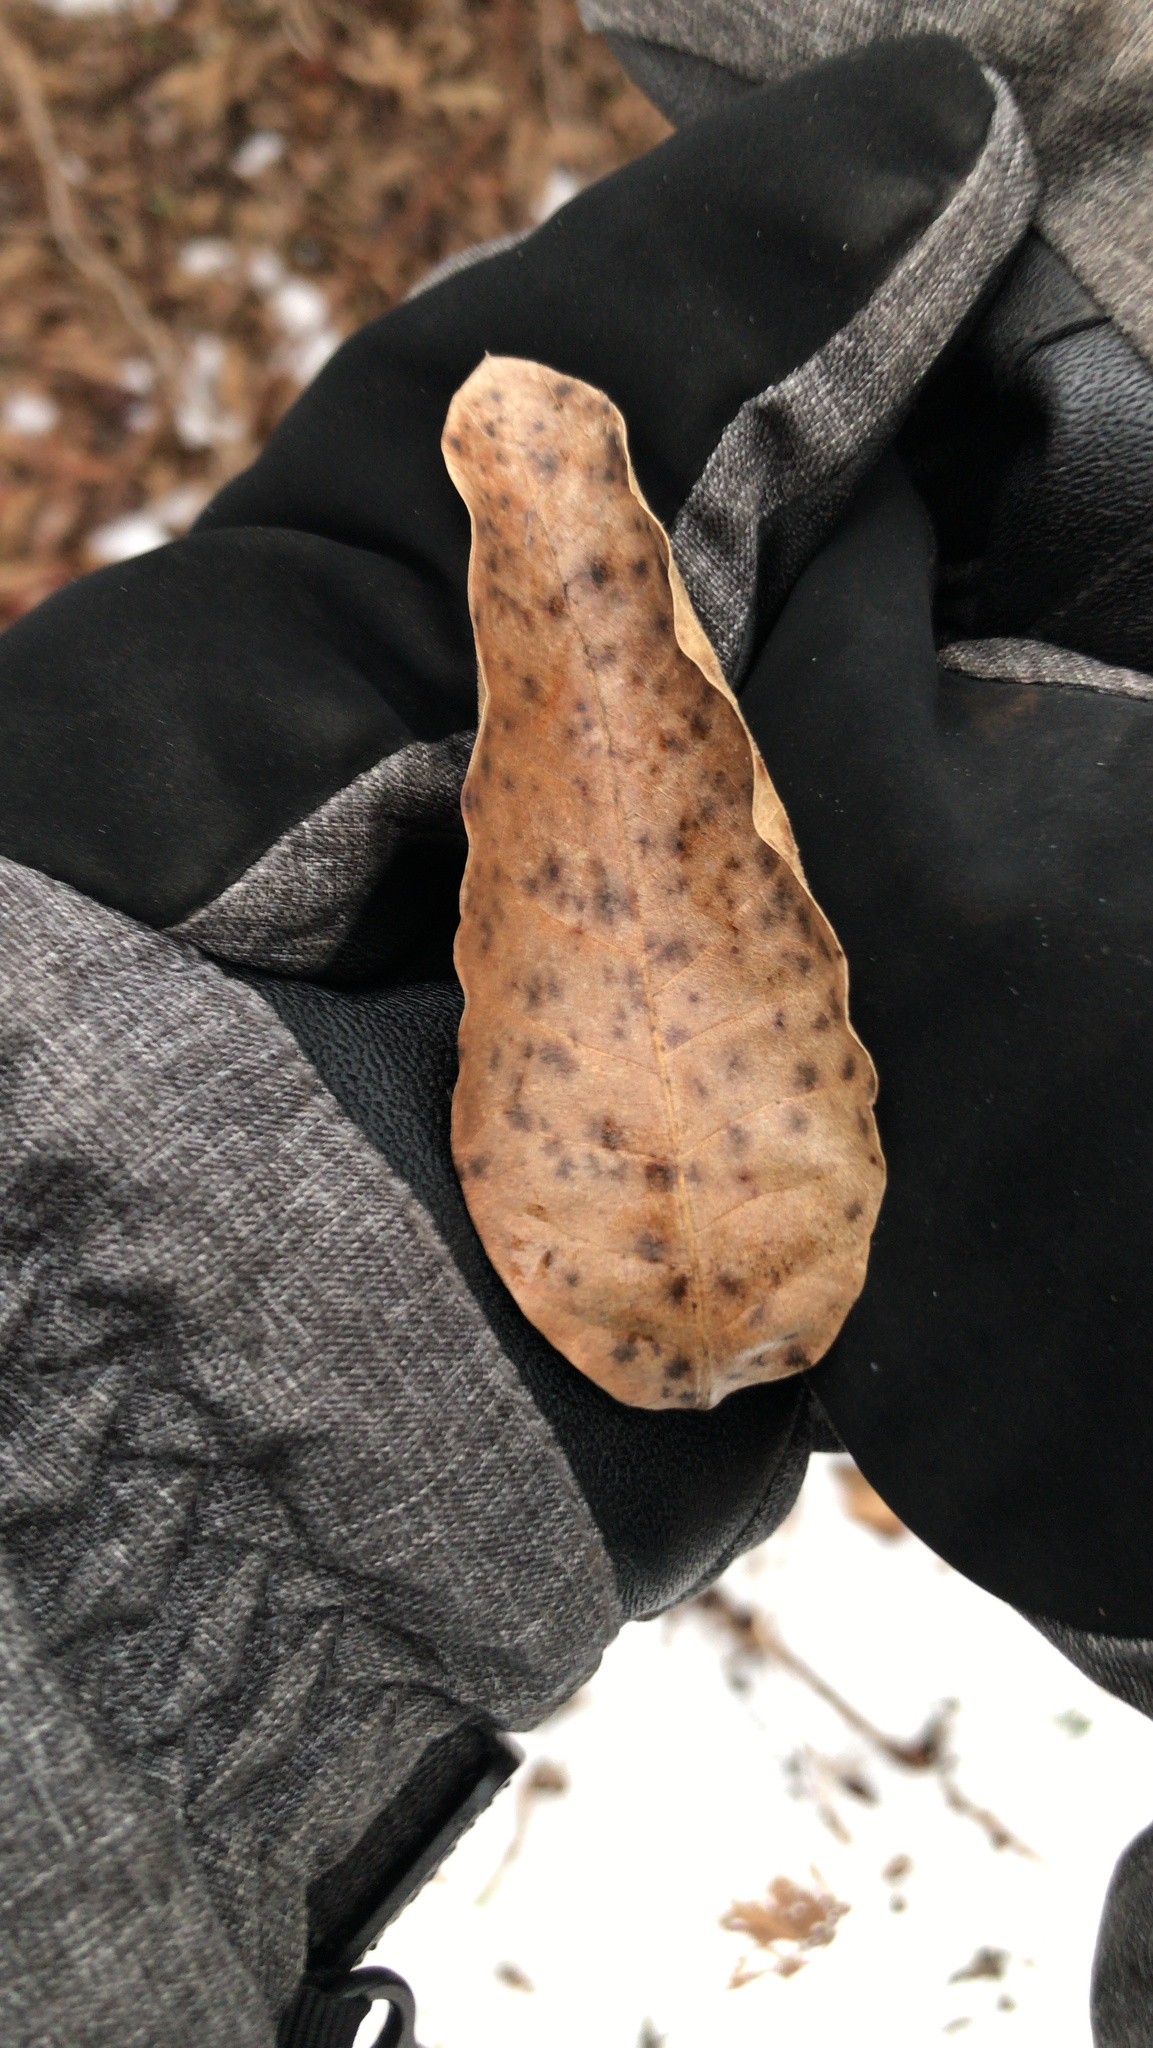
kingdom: Plantae
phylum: Tracheophyta
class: Magnoliopsida
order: Fagales
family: Fagaceae
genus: Quercus
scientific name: Quercus imbricaria
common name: Shingle oak
